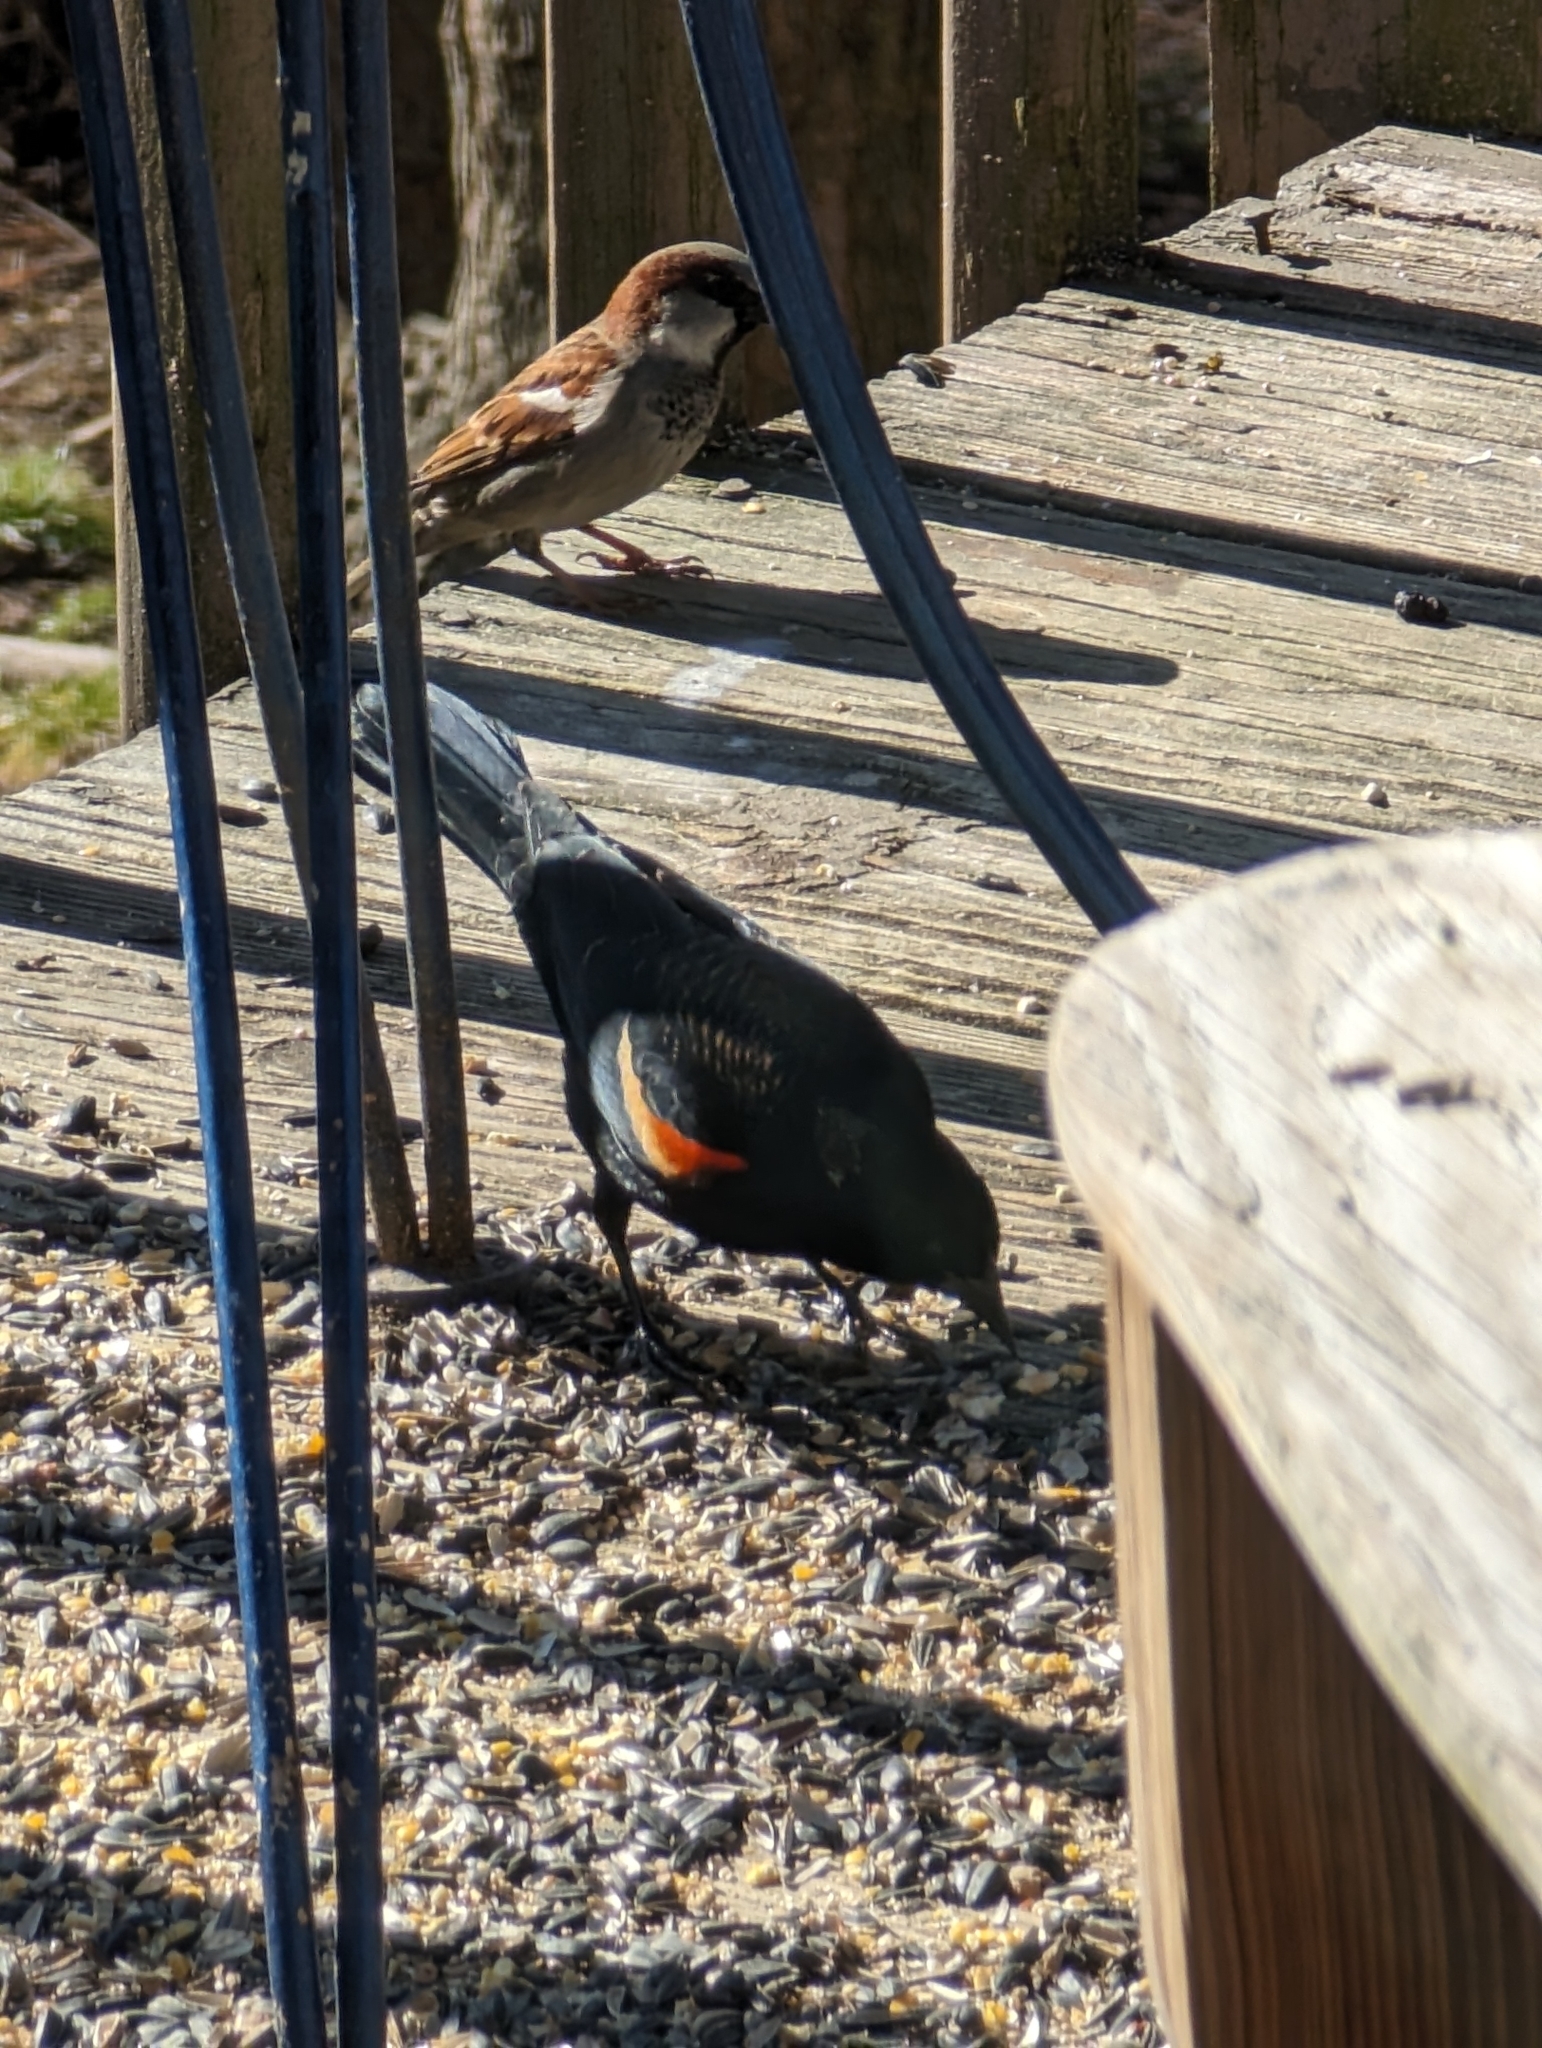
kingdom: Animalia
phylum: Chordata
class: Aves
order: Passeriformes
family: Icteridae
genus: Agelaius
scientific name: Agelaius phoeniceus
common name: Red-winged blackbird
